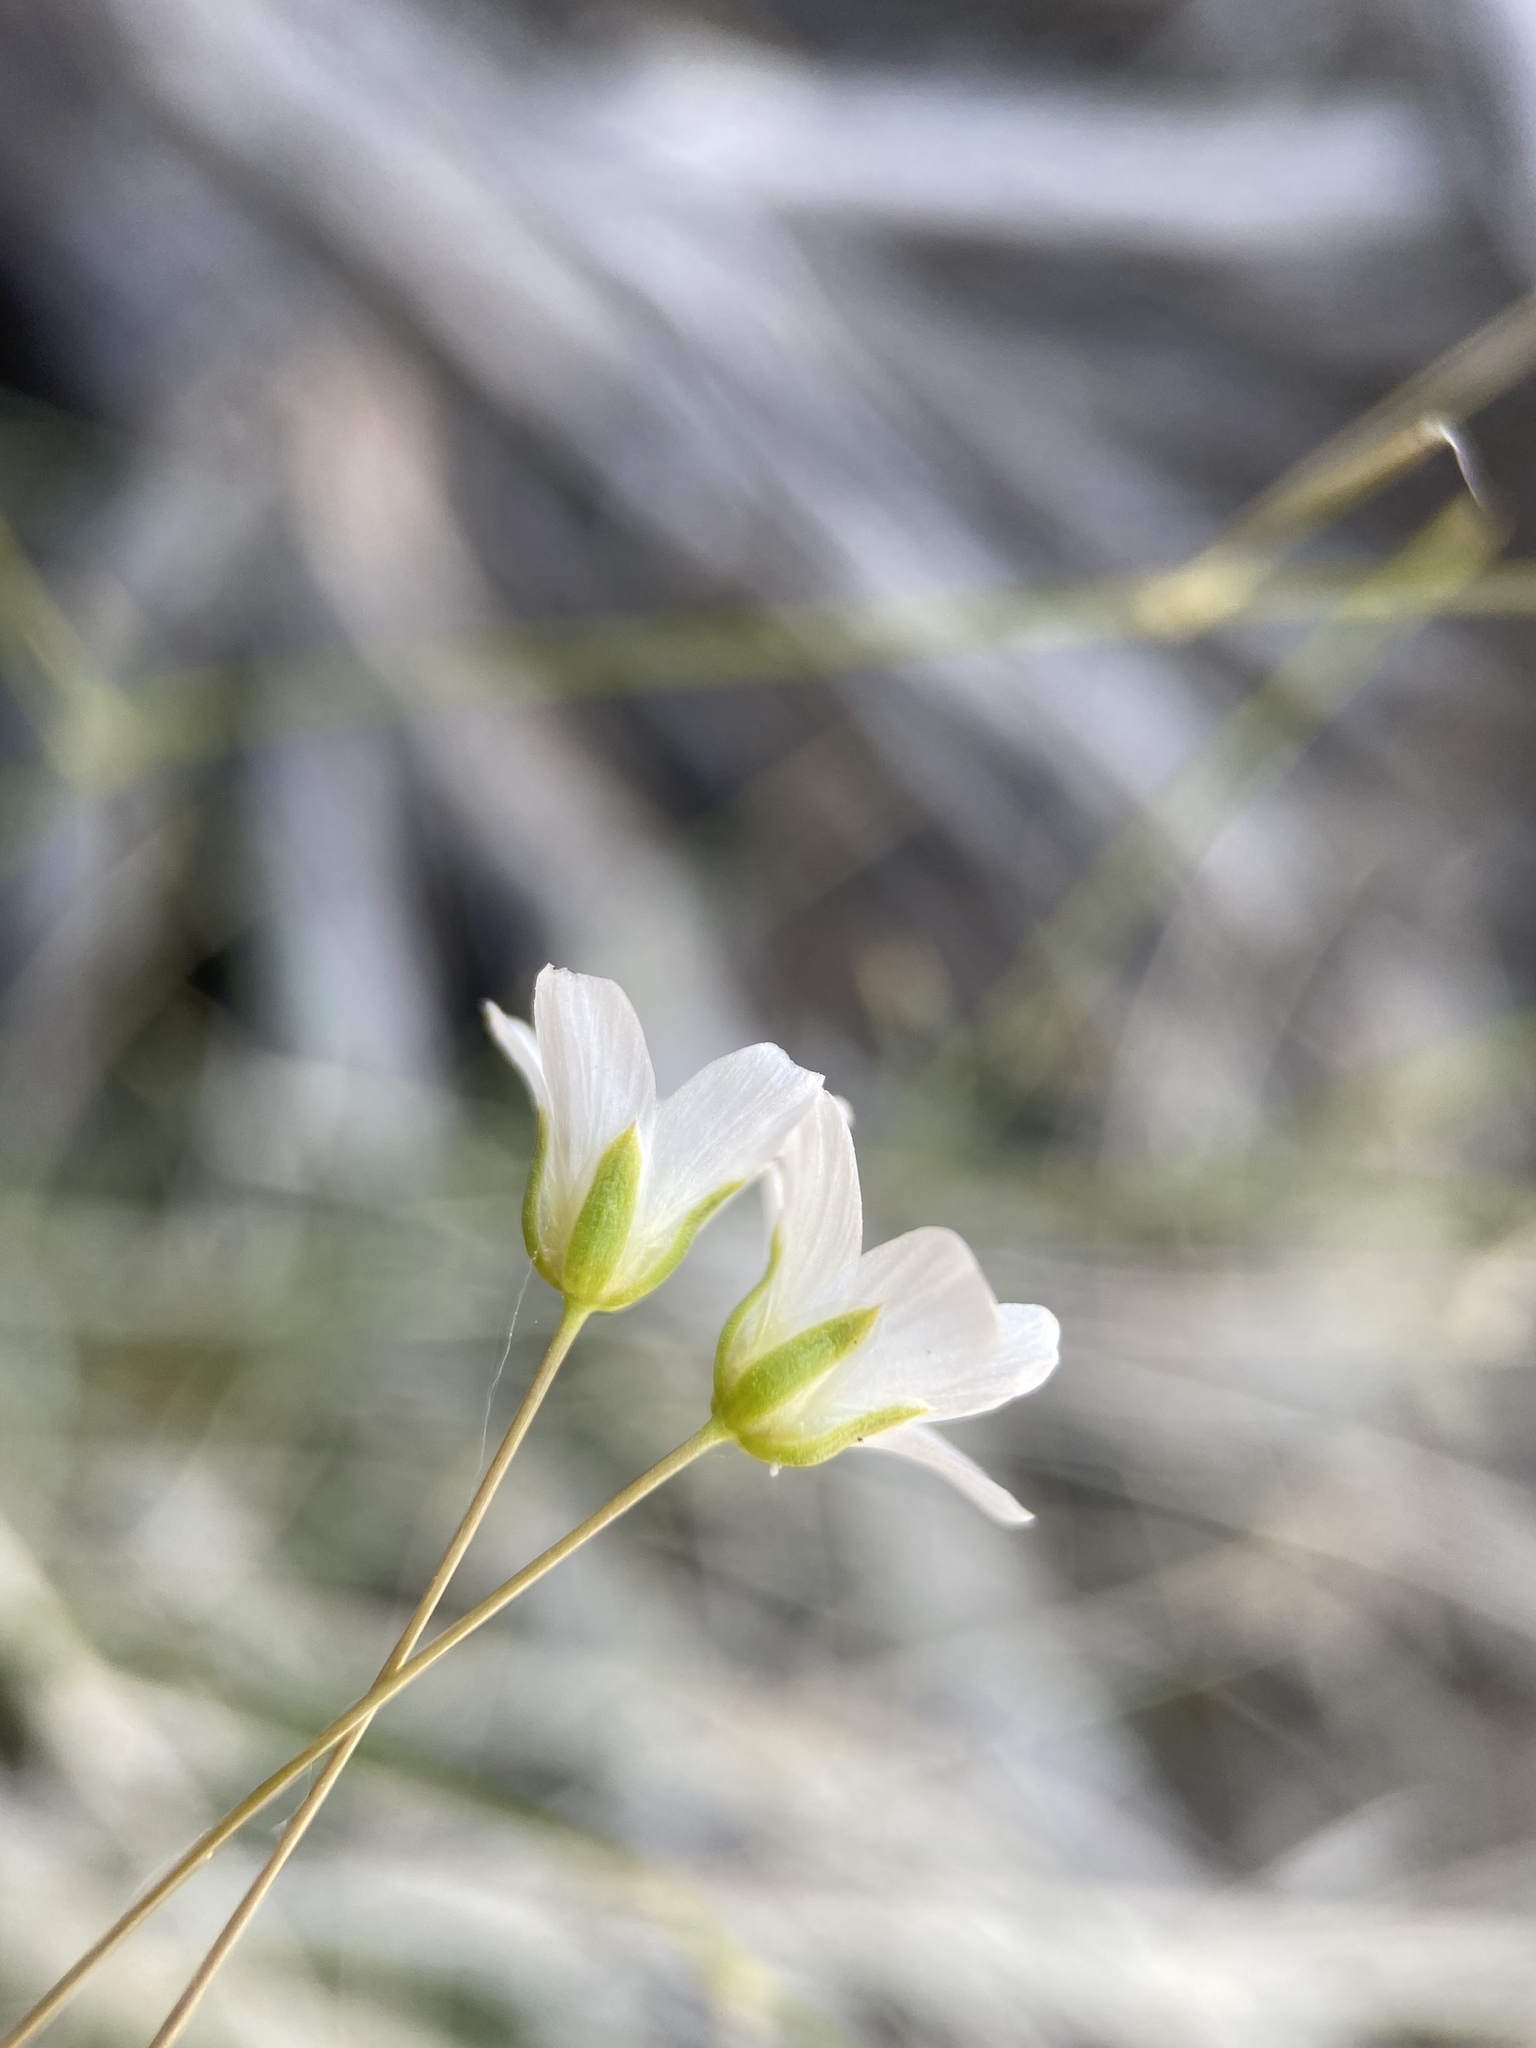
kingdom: Plantae
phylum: Tracheophyta
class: Magnoliopsida
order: Caryophyllales
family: Caryophyllaceae
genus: Eremogone
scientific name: Eremogone ferrisiae
